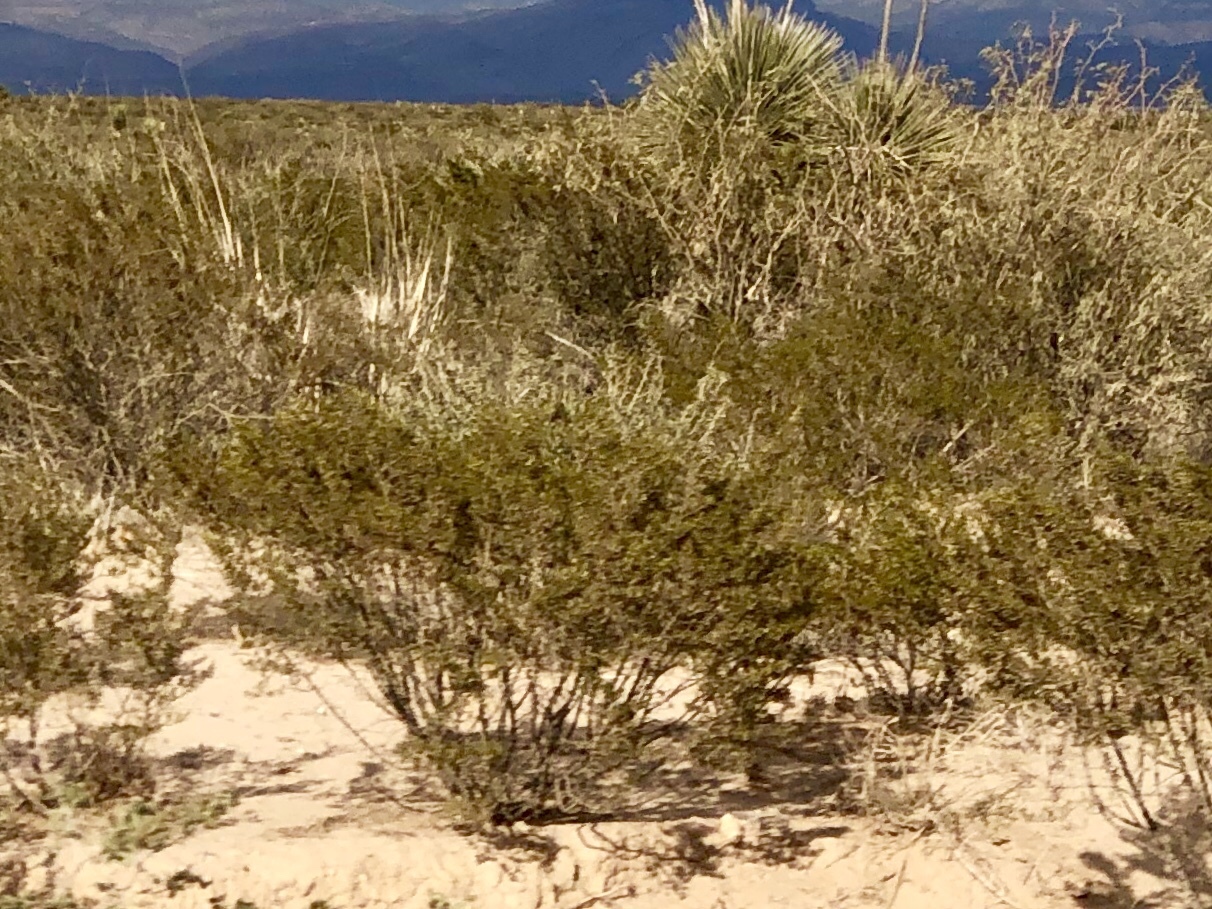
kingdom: Plantae
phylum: Tracheophyta
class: Magnoliopsida
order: Zygophyllales
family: Zygophyllaceae
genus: Larrea
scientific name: Larrea tridentata
